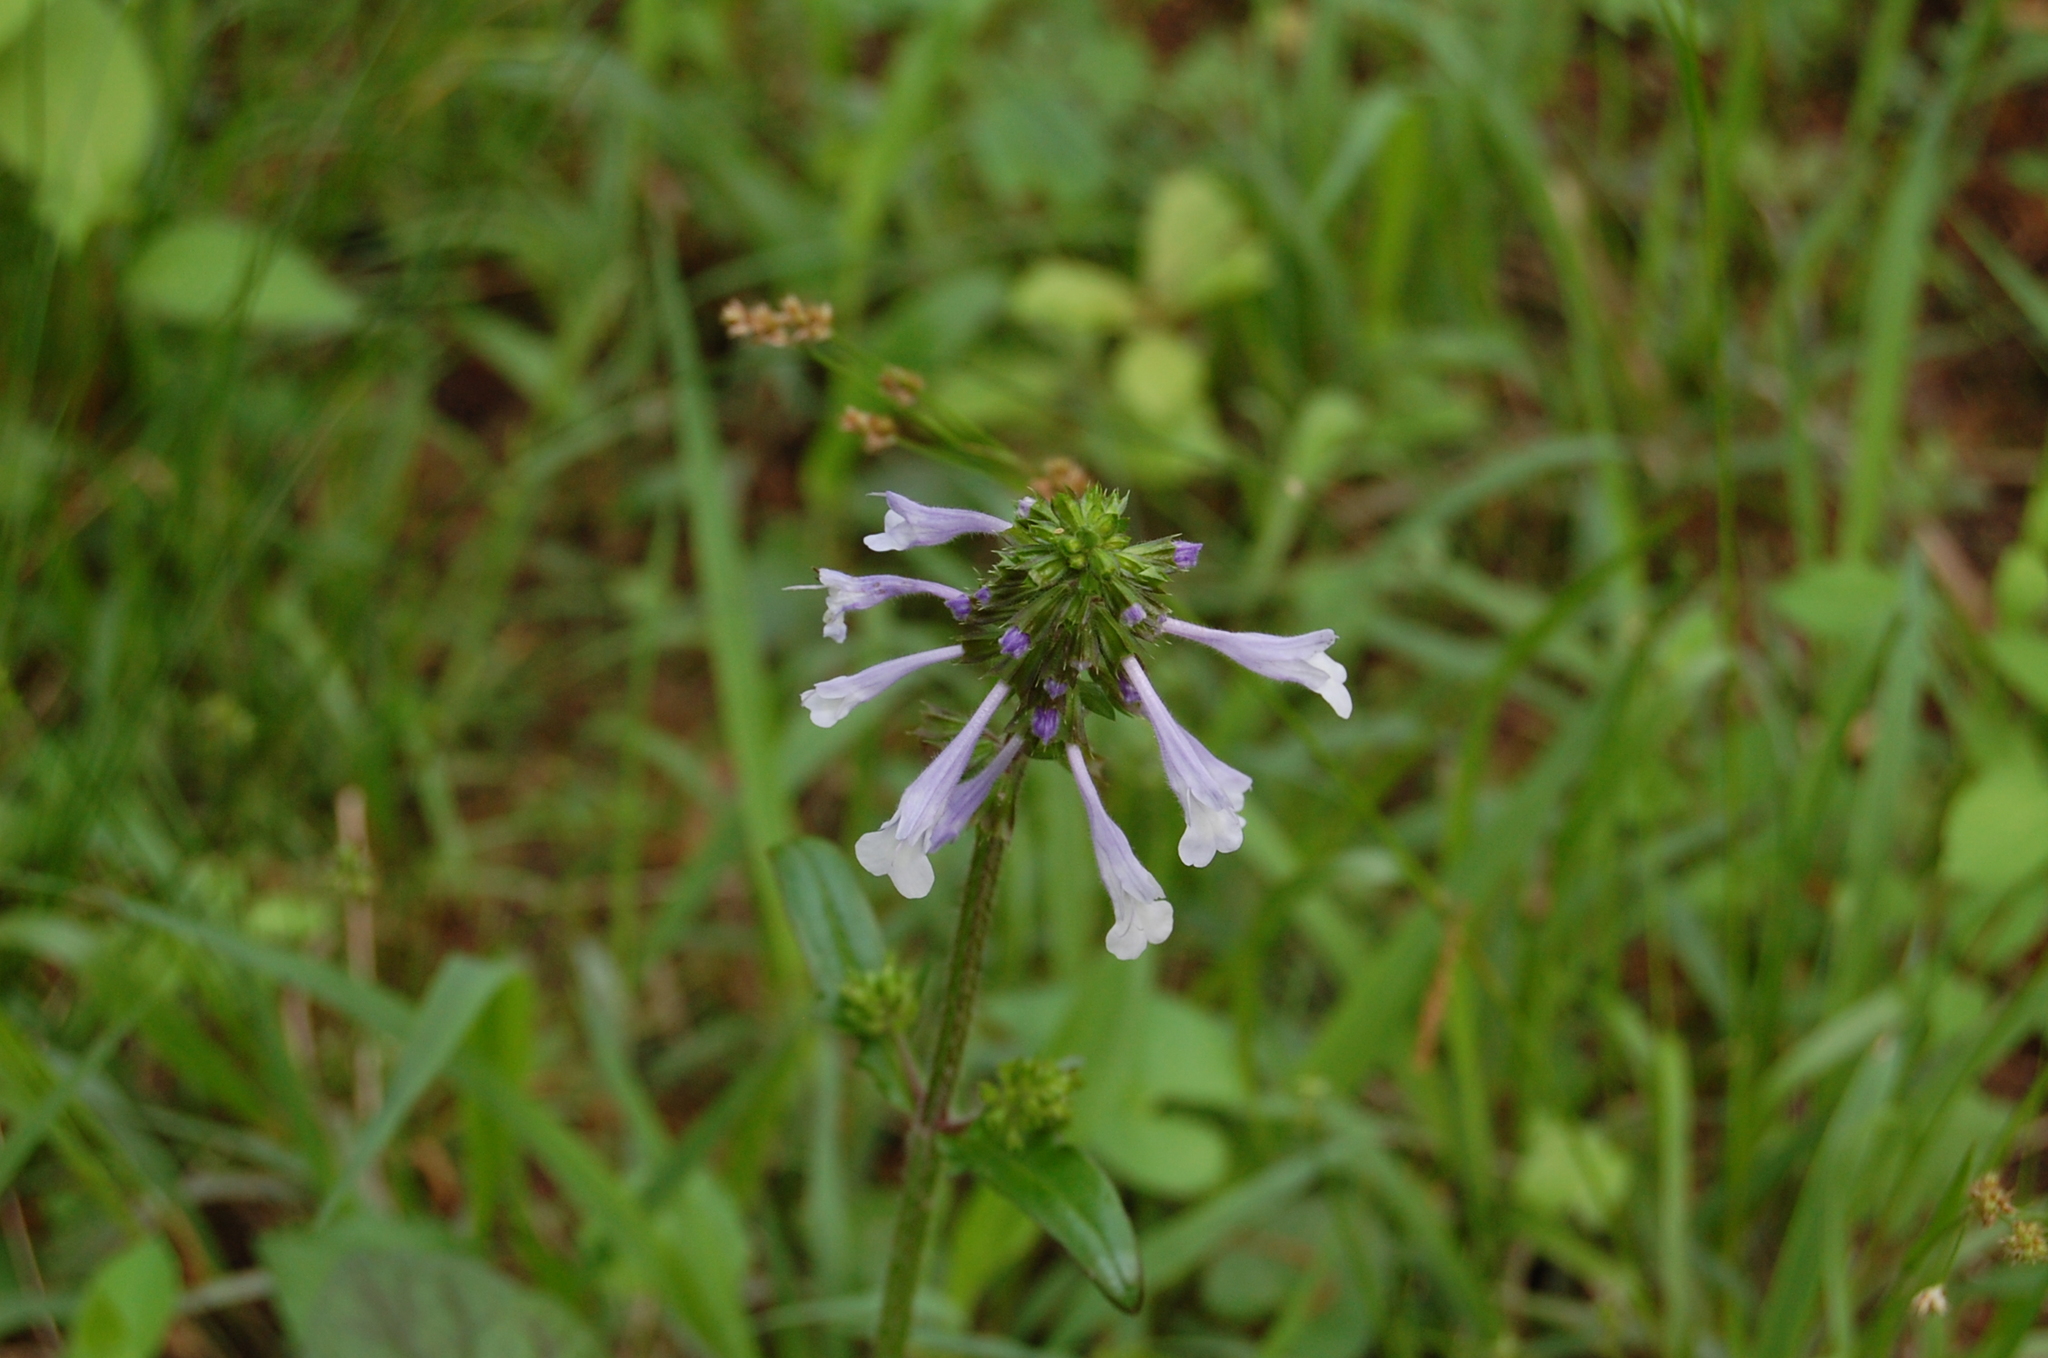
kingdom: Plantae
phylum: Tracheophyta
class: Magnoliopsida
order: Lamiales
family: Lamiaceae
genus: Salvia
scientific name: Salvia lyrata
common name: Cancerweed
